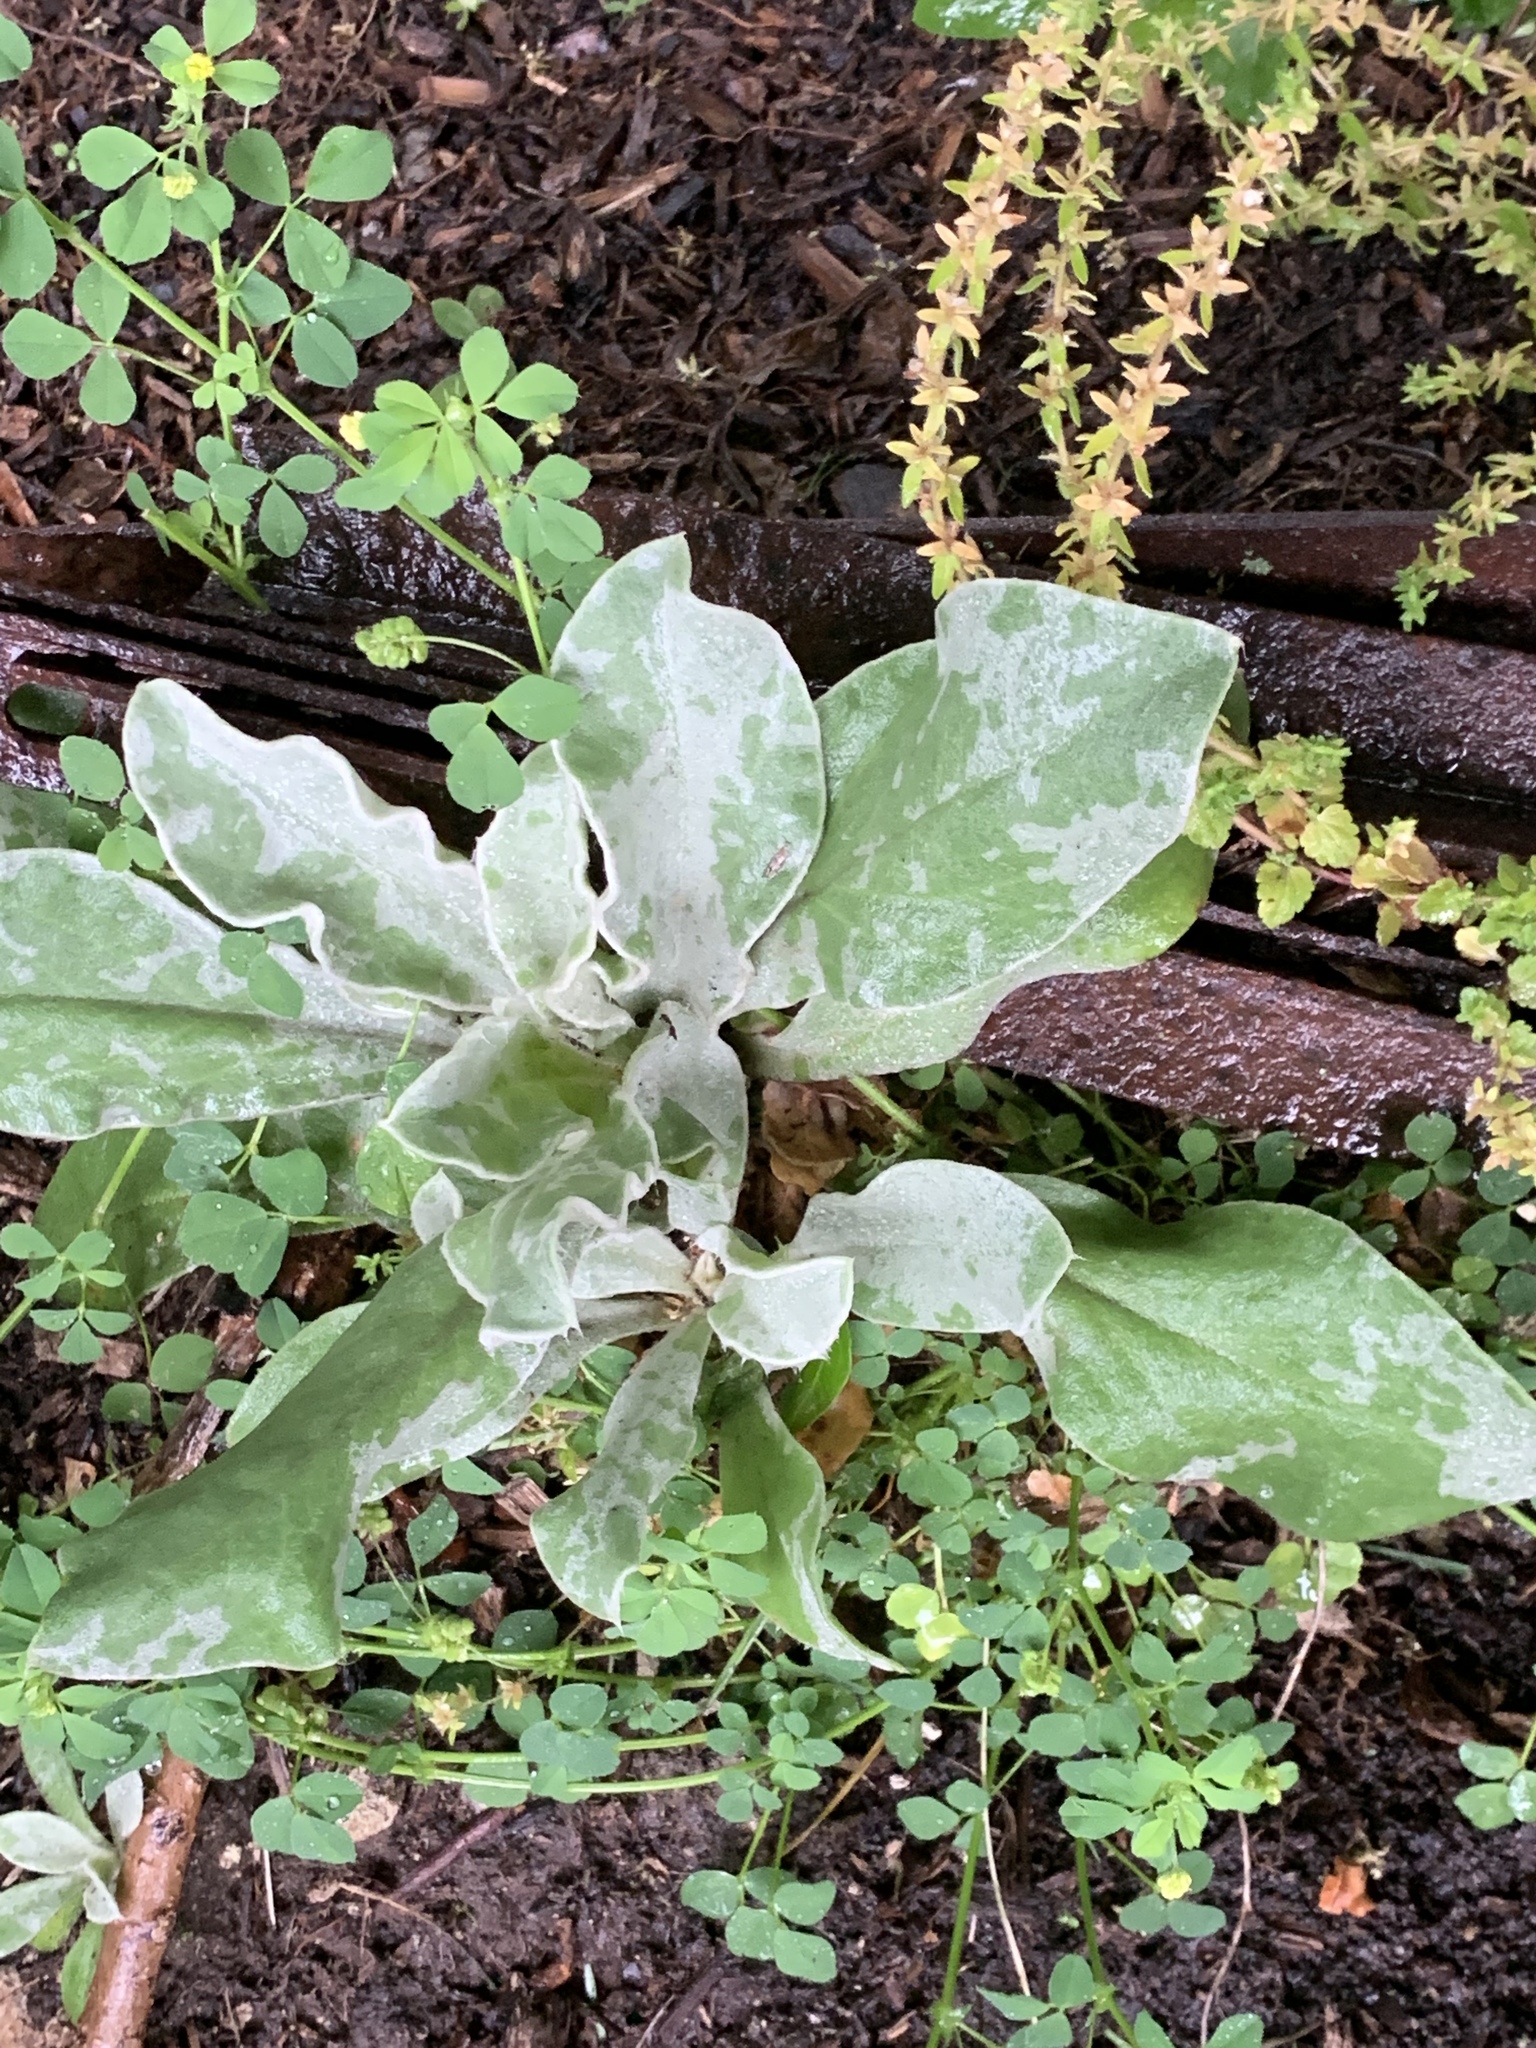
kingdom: Plantae
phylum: Tracheophyta
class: Magnoliopsida
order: Caryophyllales
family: Caryophyllaceae
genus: Silene
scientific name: Silene coronaria
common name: Rose campion
